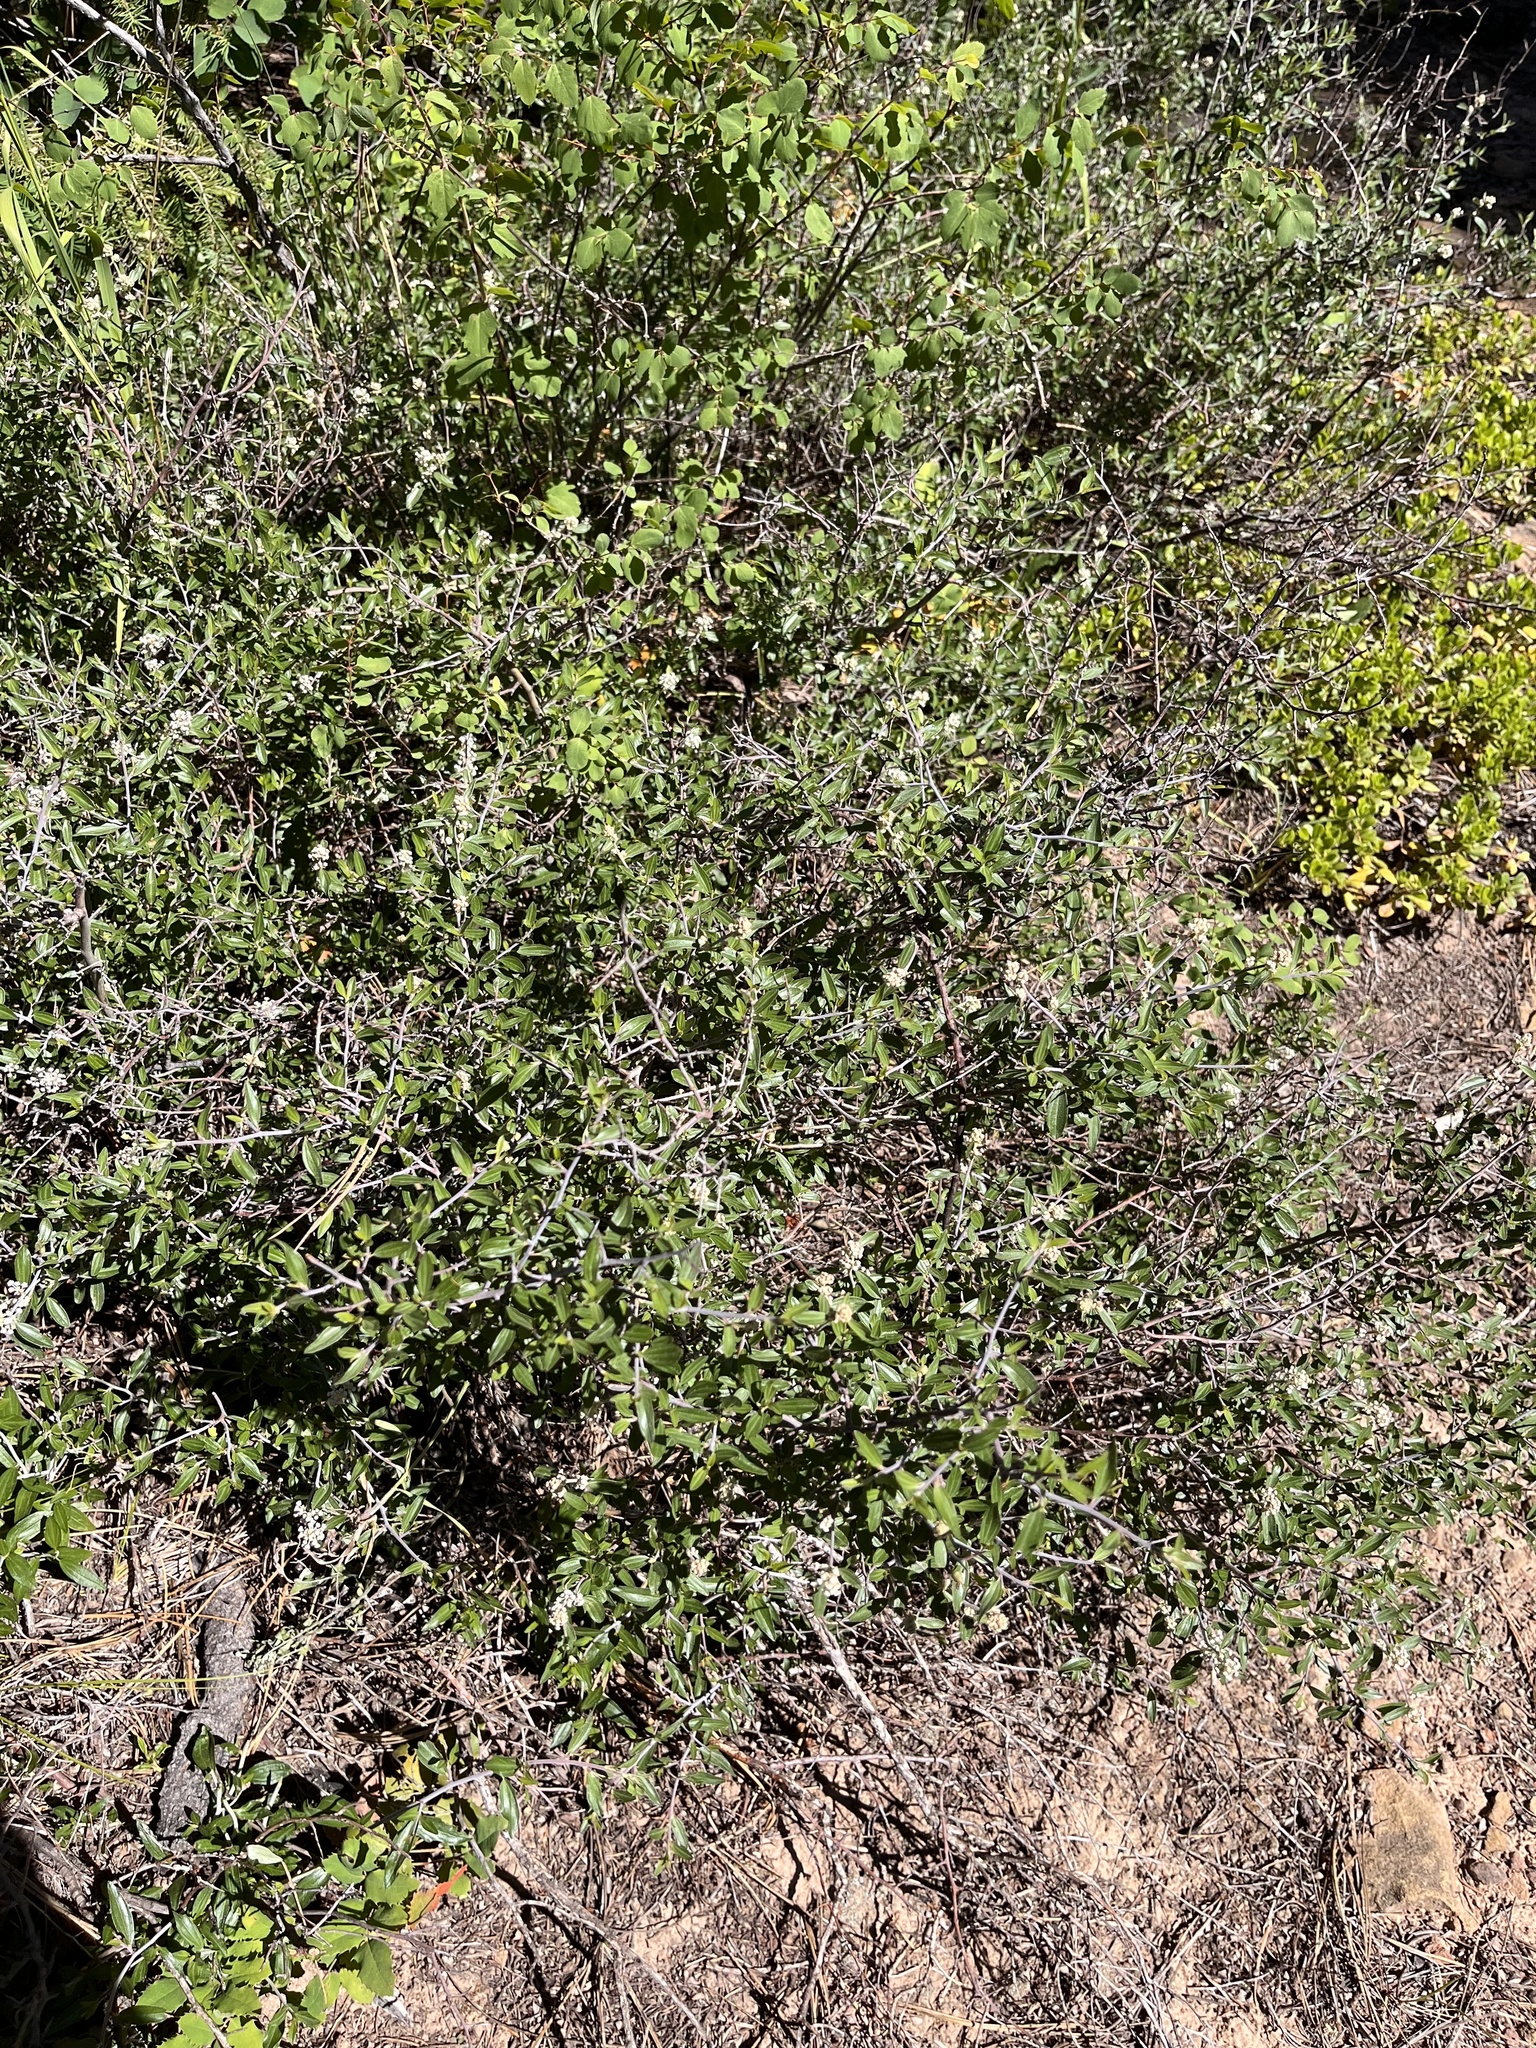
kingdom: Plantae
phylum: Tracheophyta
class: Magnoliopsida
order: Rosales
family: Rhamnaceae
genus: Ceanothus
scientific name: Ceanothus fendleri
